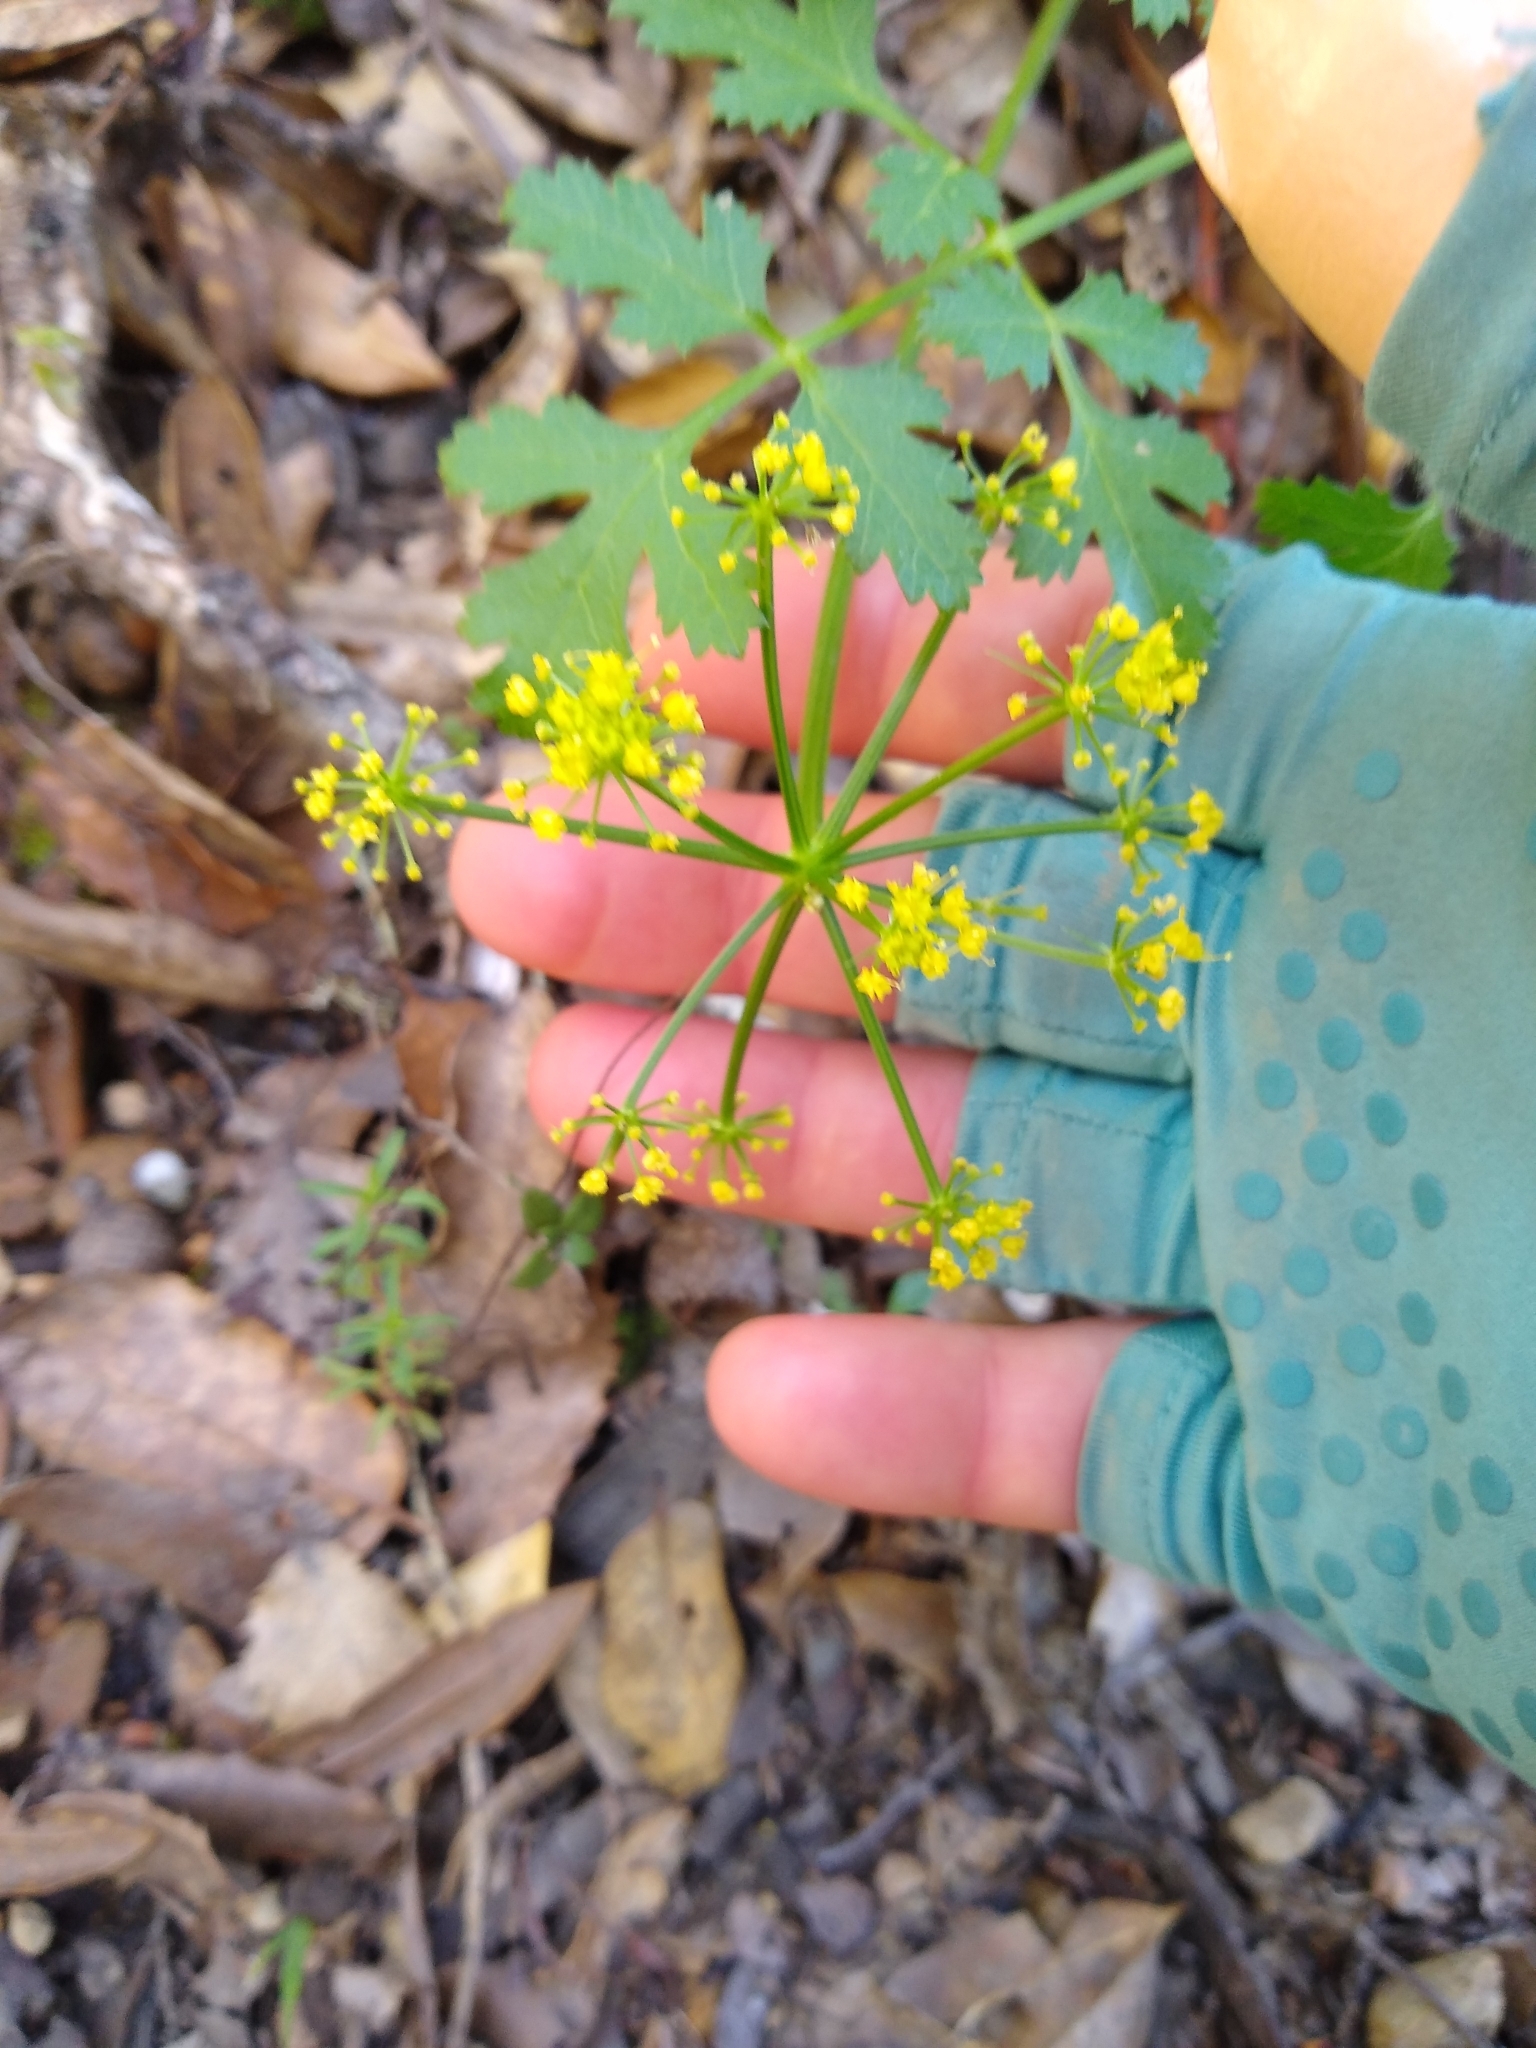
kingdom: Plantae
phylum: Tracheophyta
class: Magnoliopsida
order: Apiales
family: Apiaceae
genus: Tauschia
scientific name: Tauschia kelloggii
